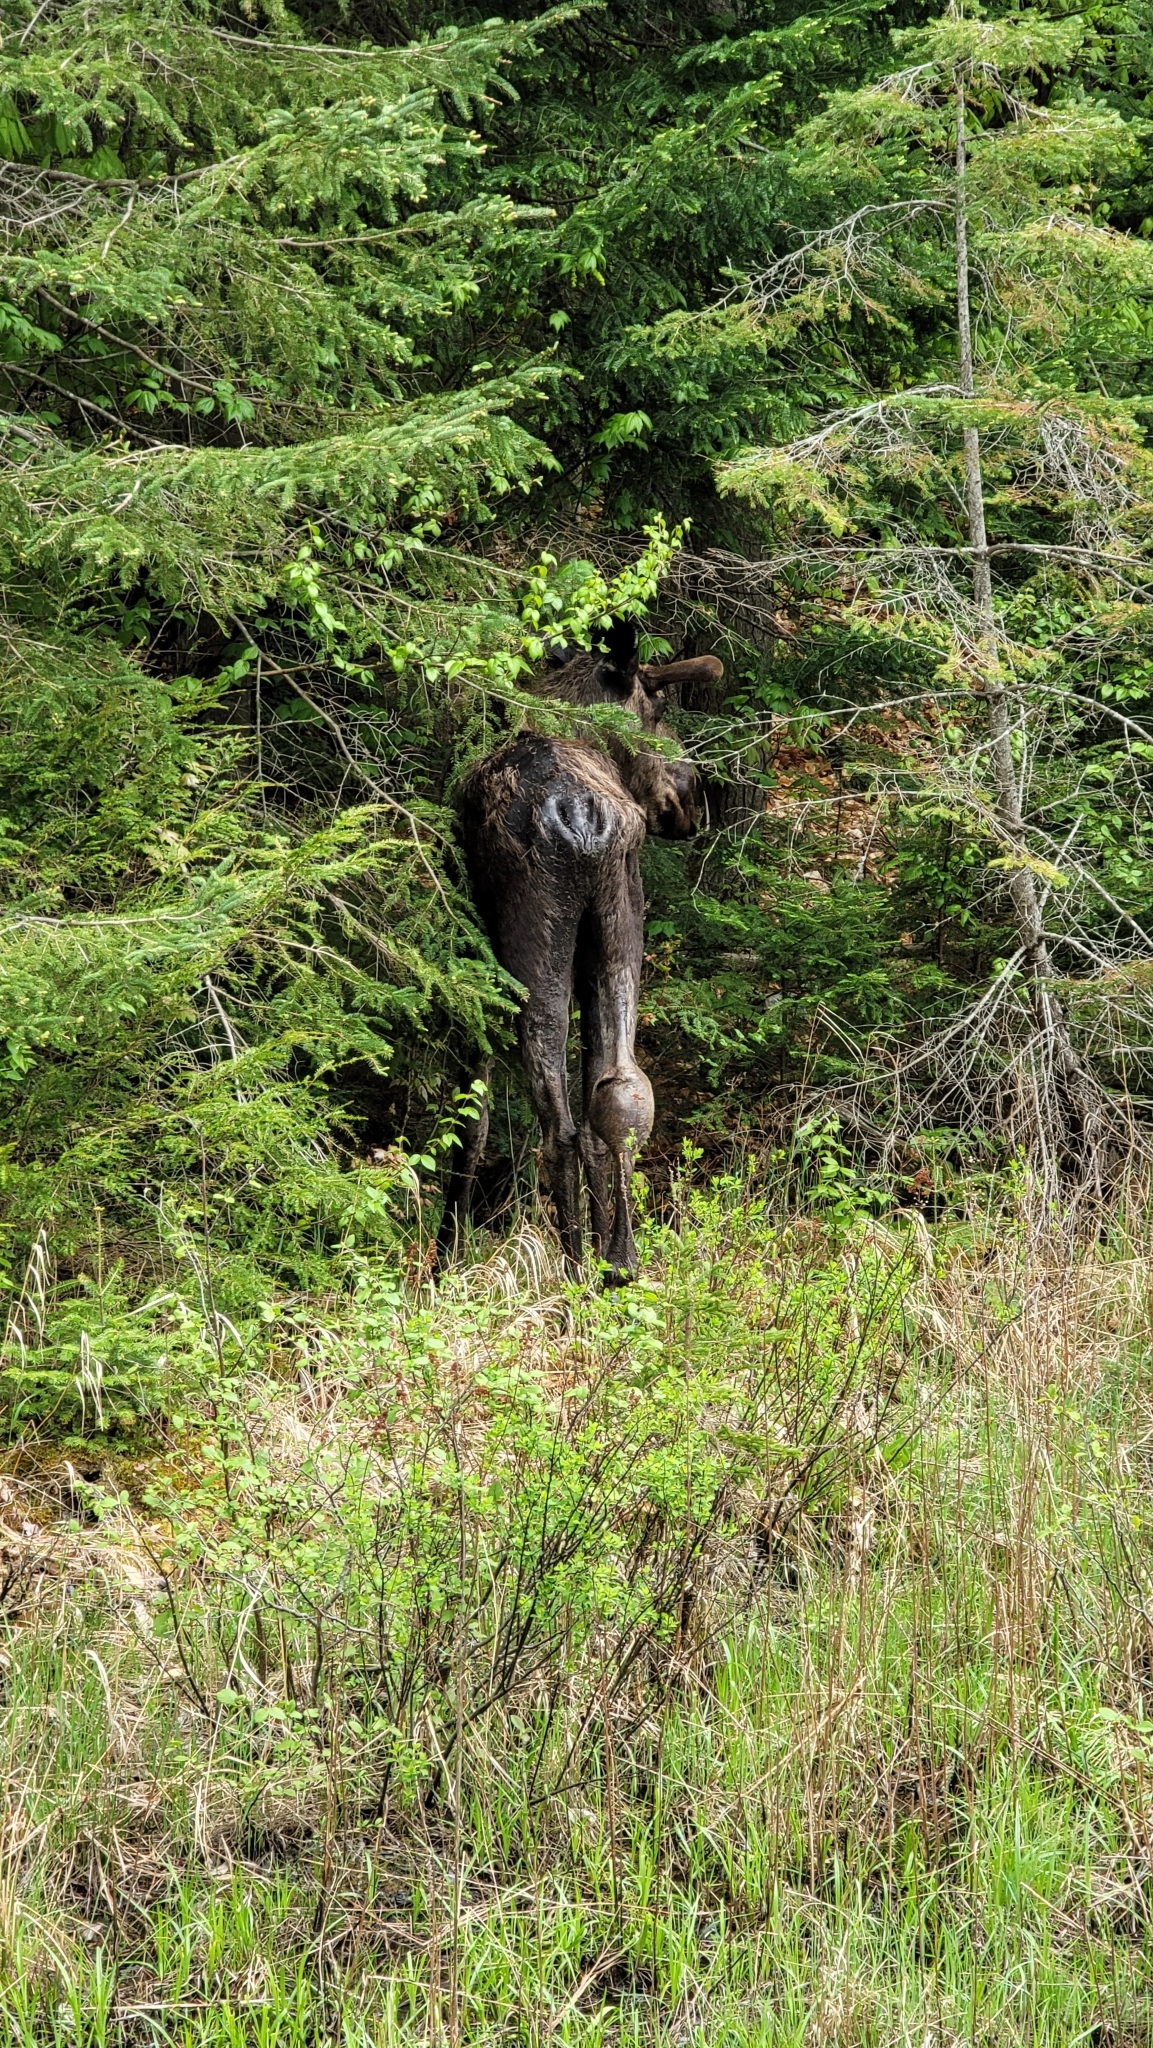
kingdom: Animalia
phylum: Chordata
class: Mammalia
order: Artiodactyla
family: Cervidae
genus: Alces
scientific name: Alces alces
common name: Moose
